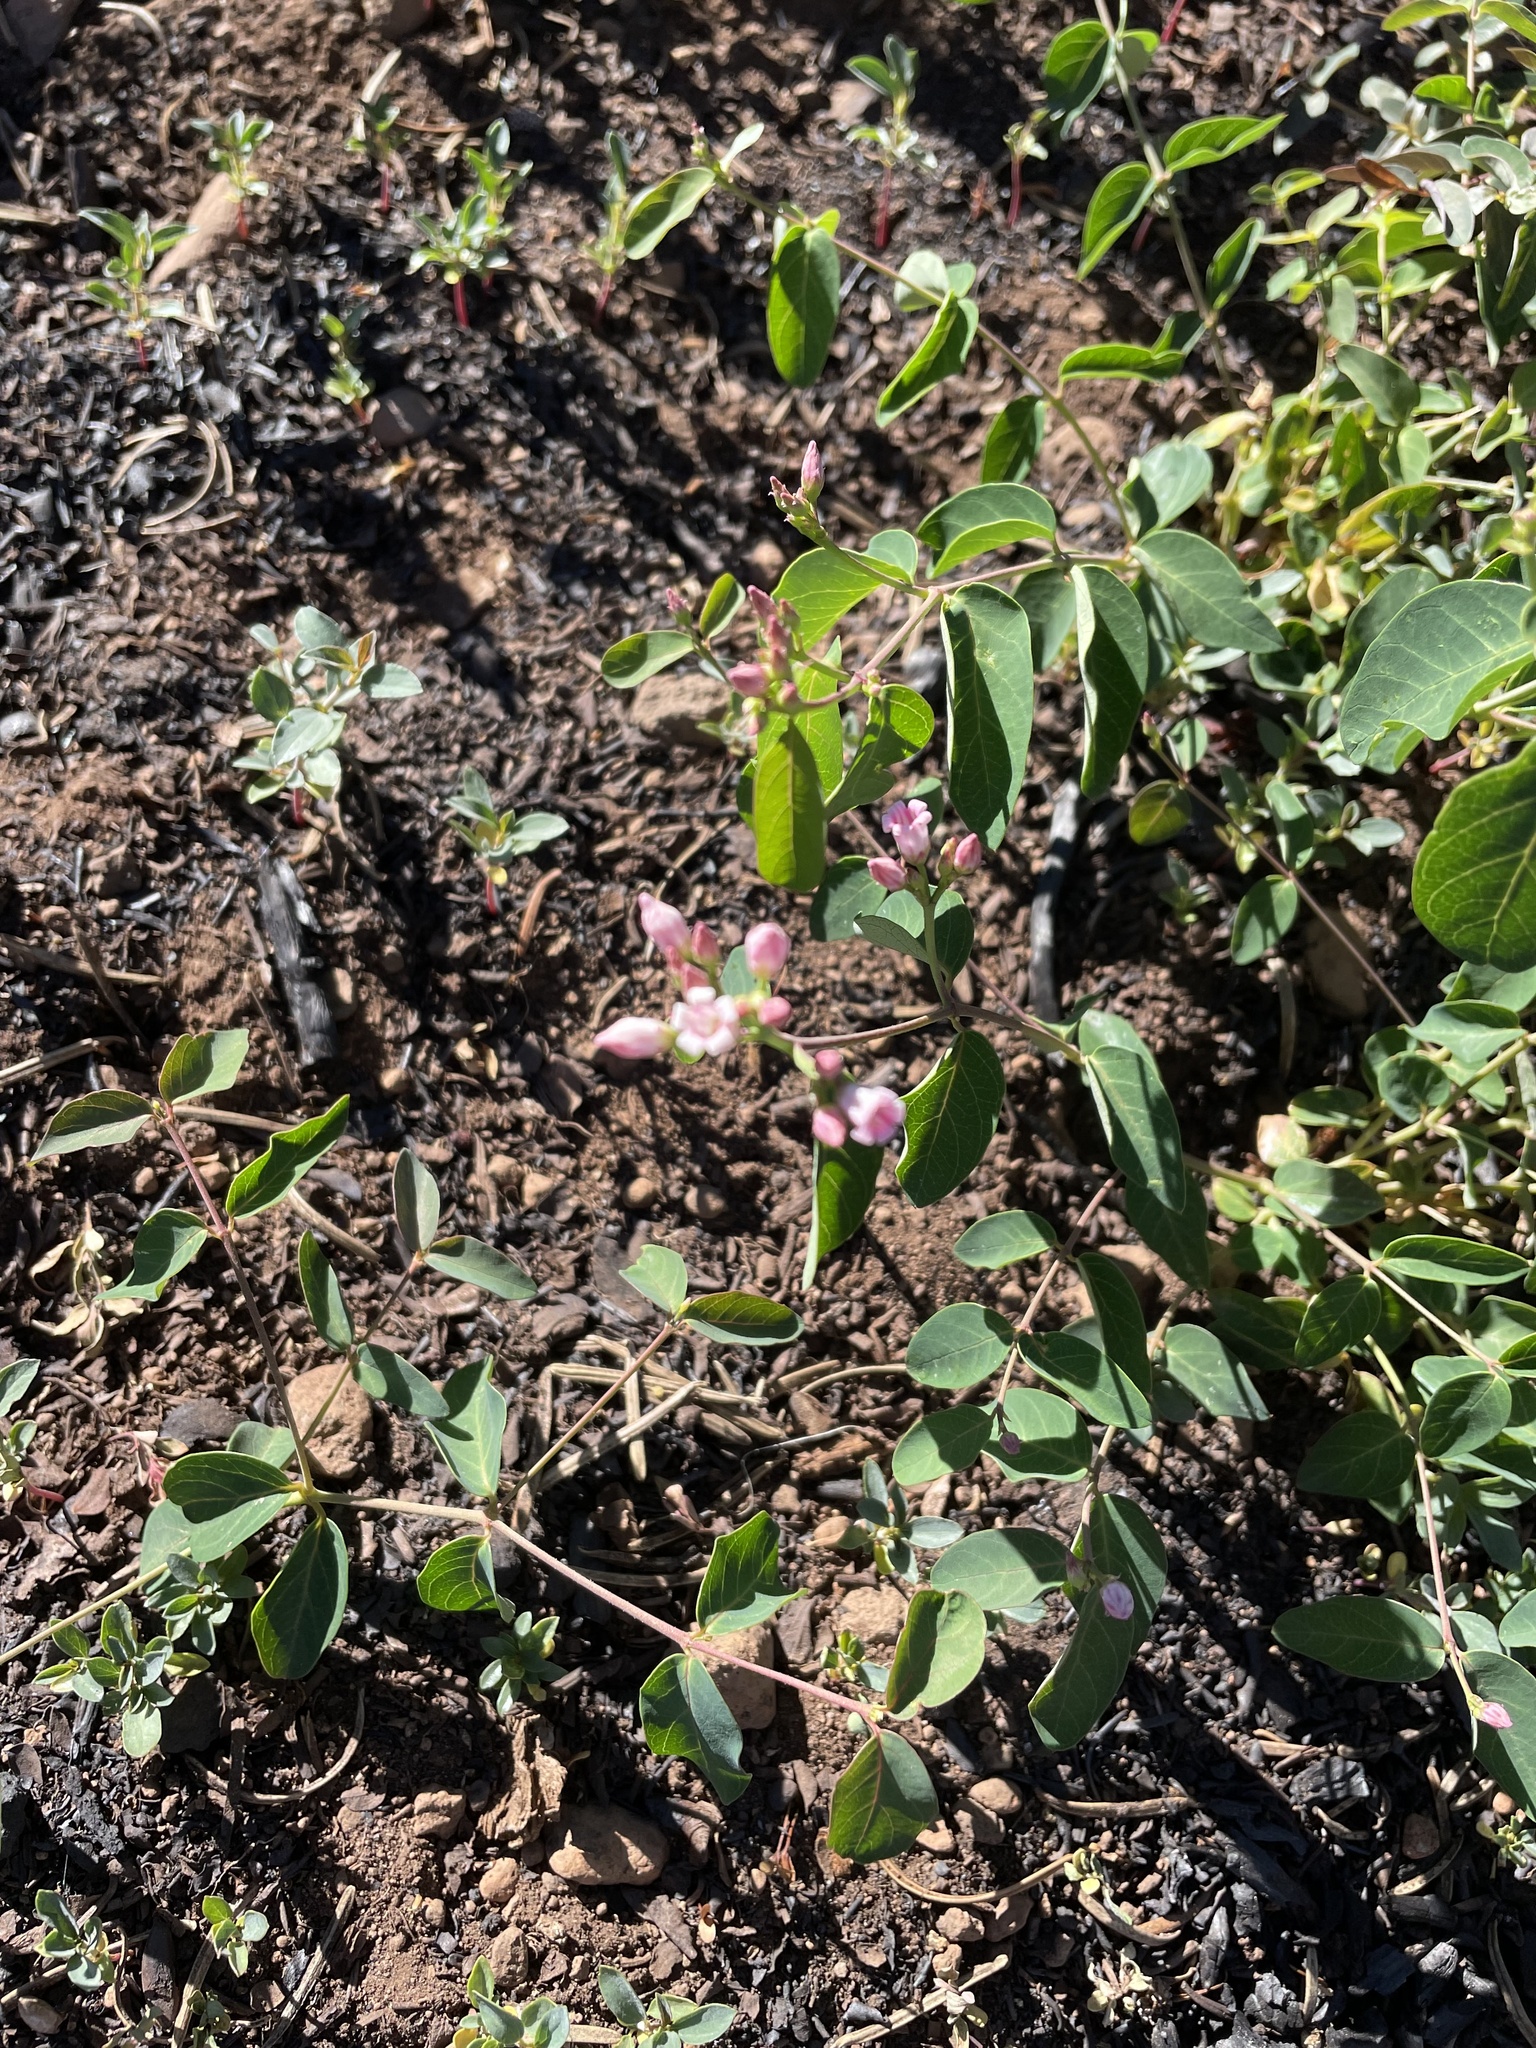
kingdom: Plantae
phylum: Tracheophyta
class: Magnoliopsida
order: Gentianales
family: Apocynaceae
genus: Apocynum
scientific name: Apocynum androsaemifolium
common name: Spreading dogbane
